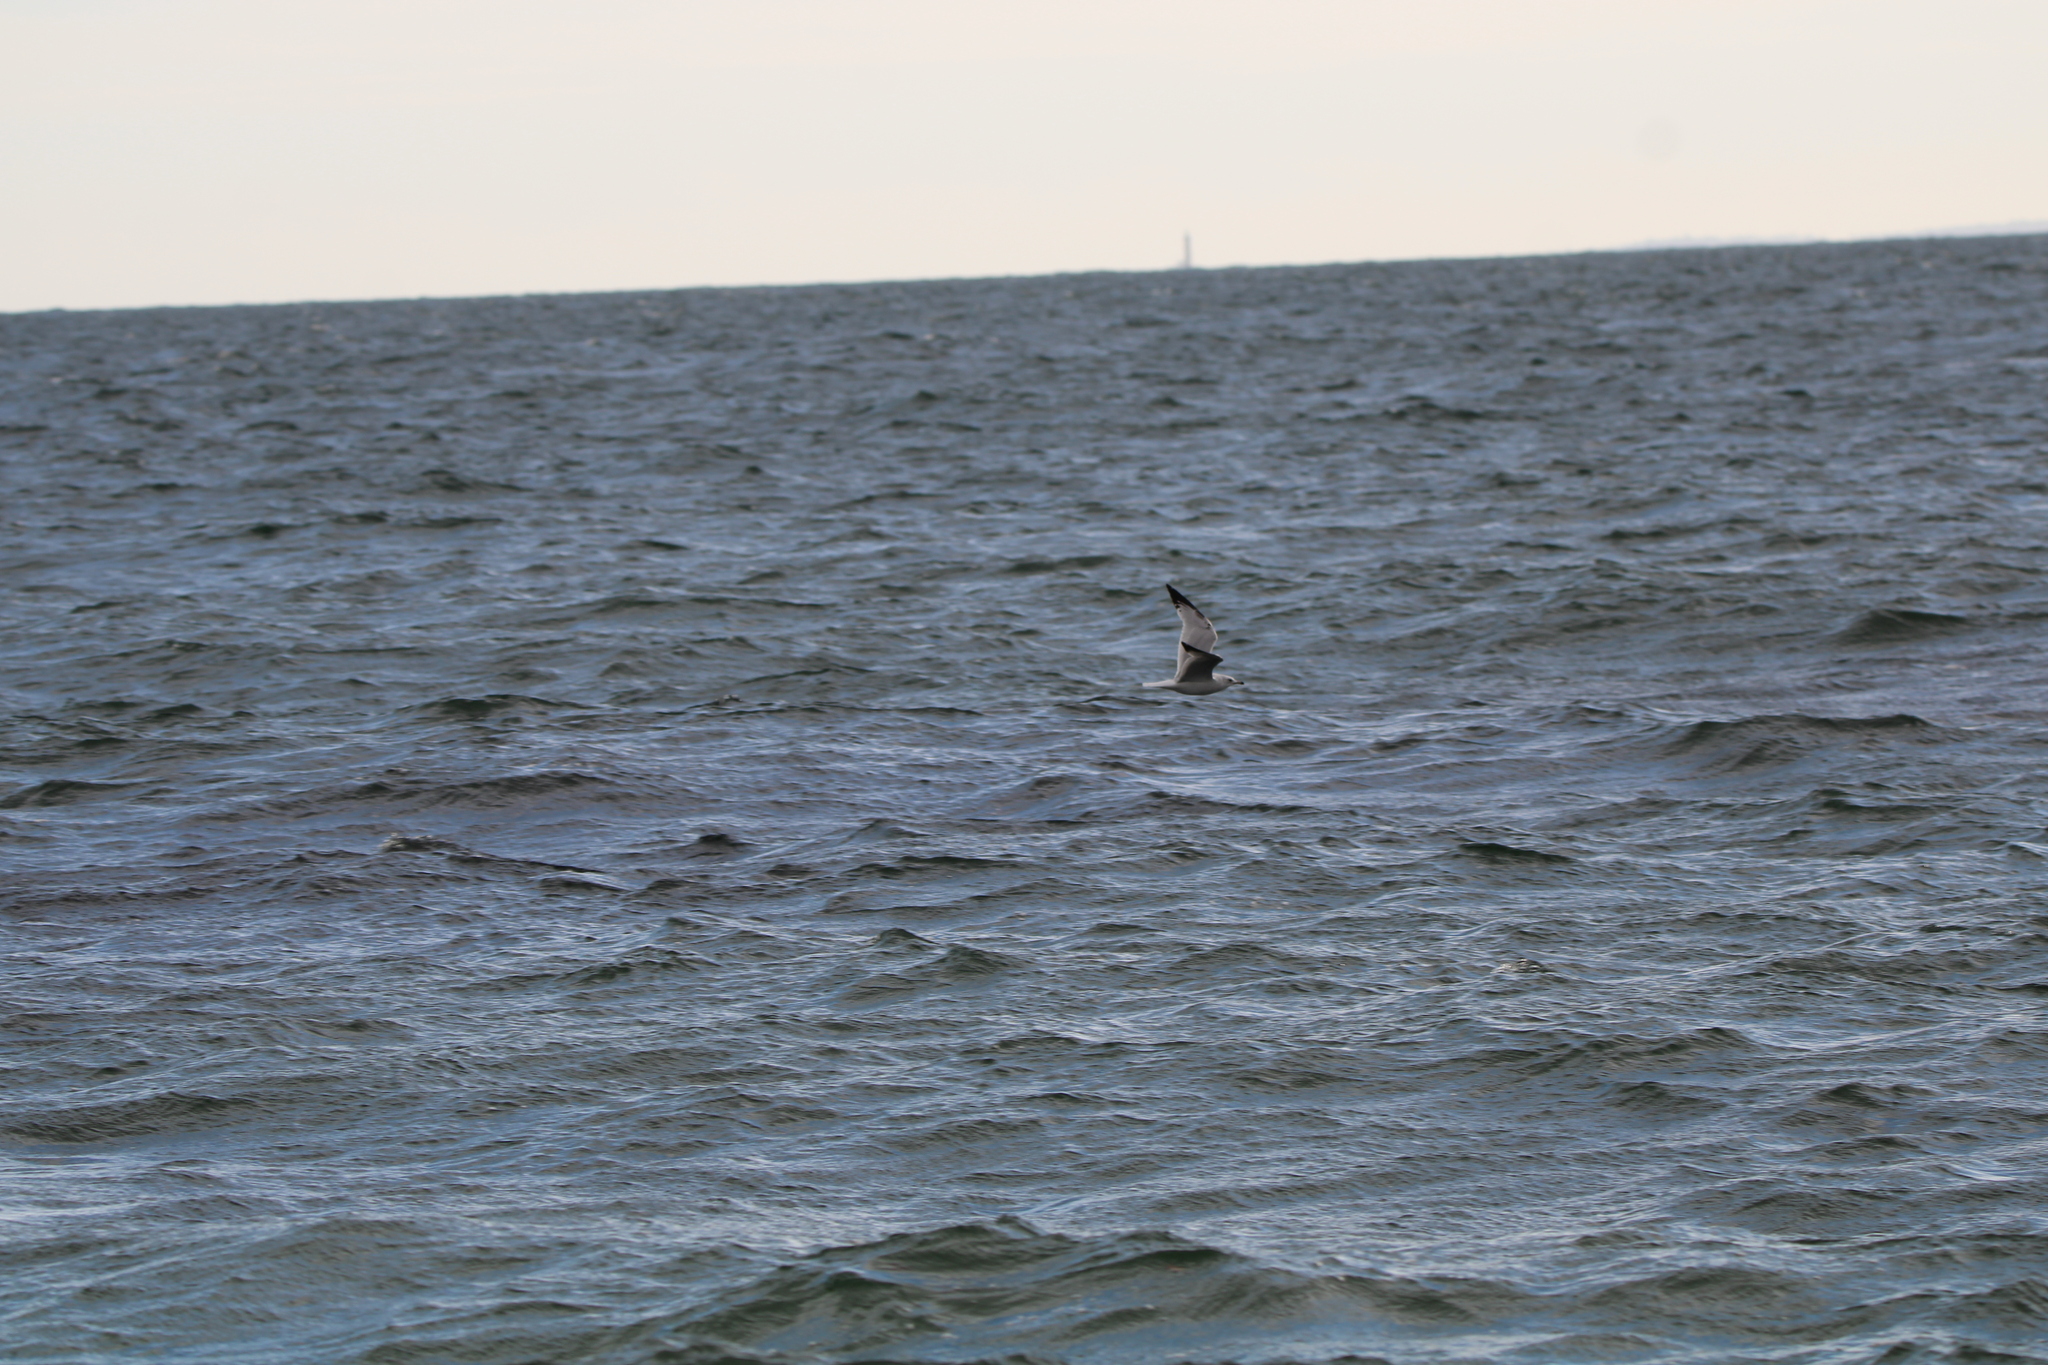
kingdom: Animalia
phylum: Chordata
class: Aves
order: Charadriiformes
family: Laridae
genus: Larus
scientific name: Larus delawarensis
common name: Ring-billed gull
